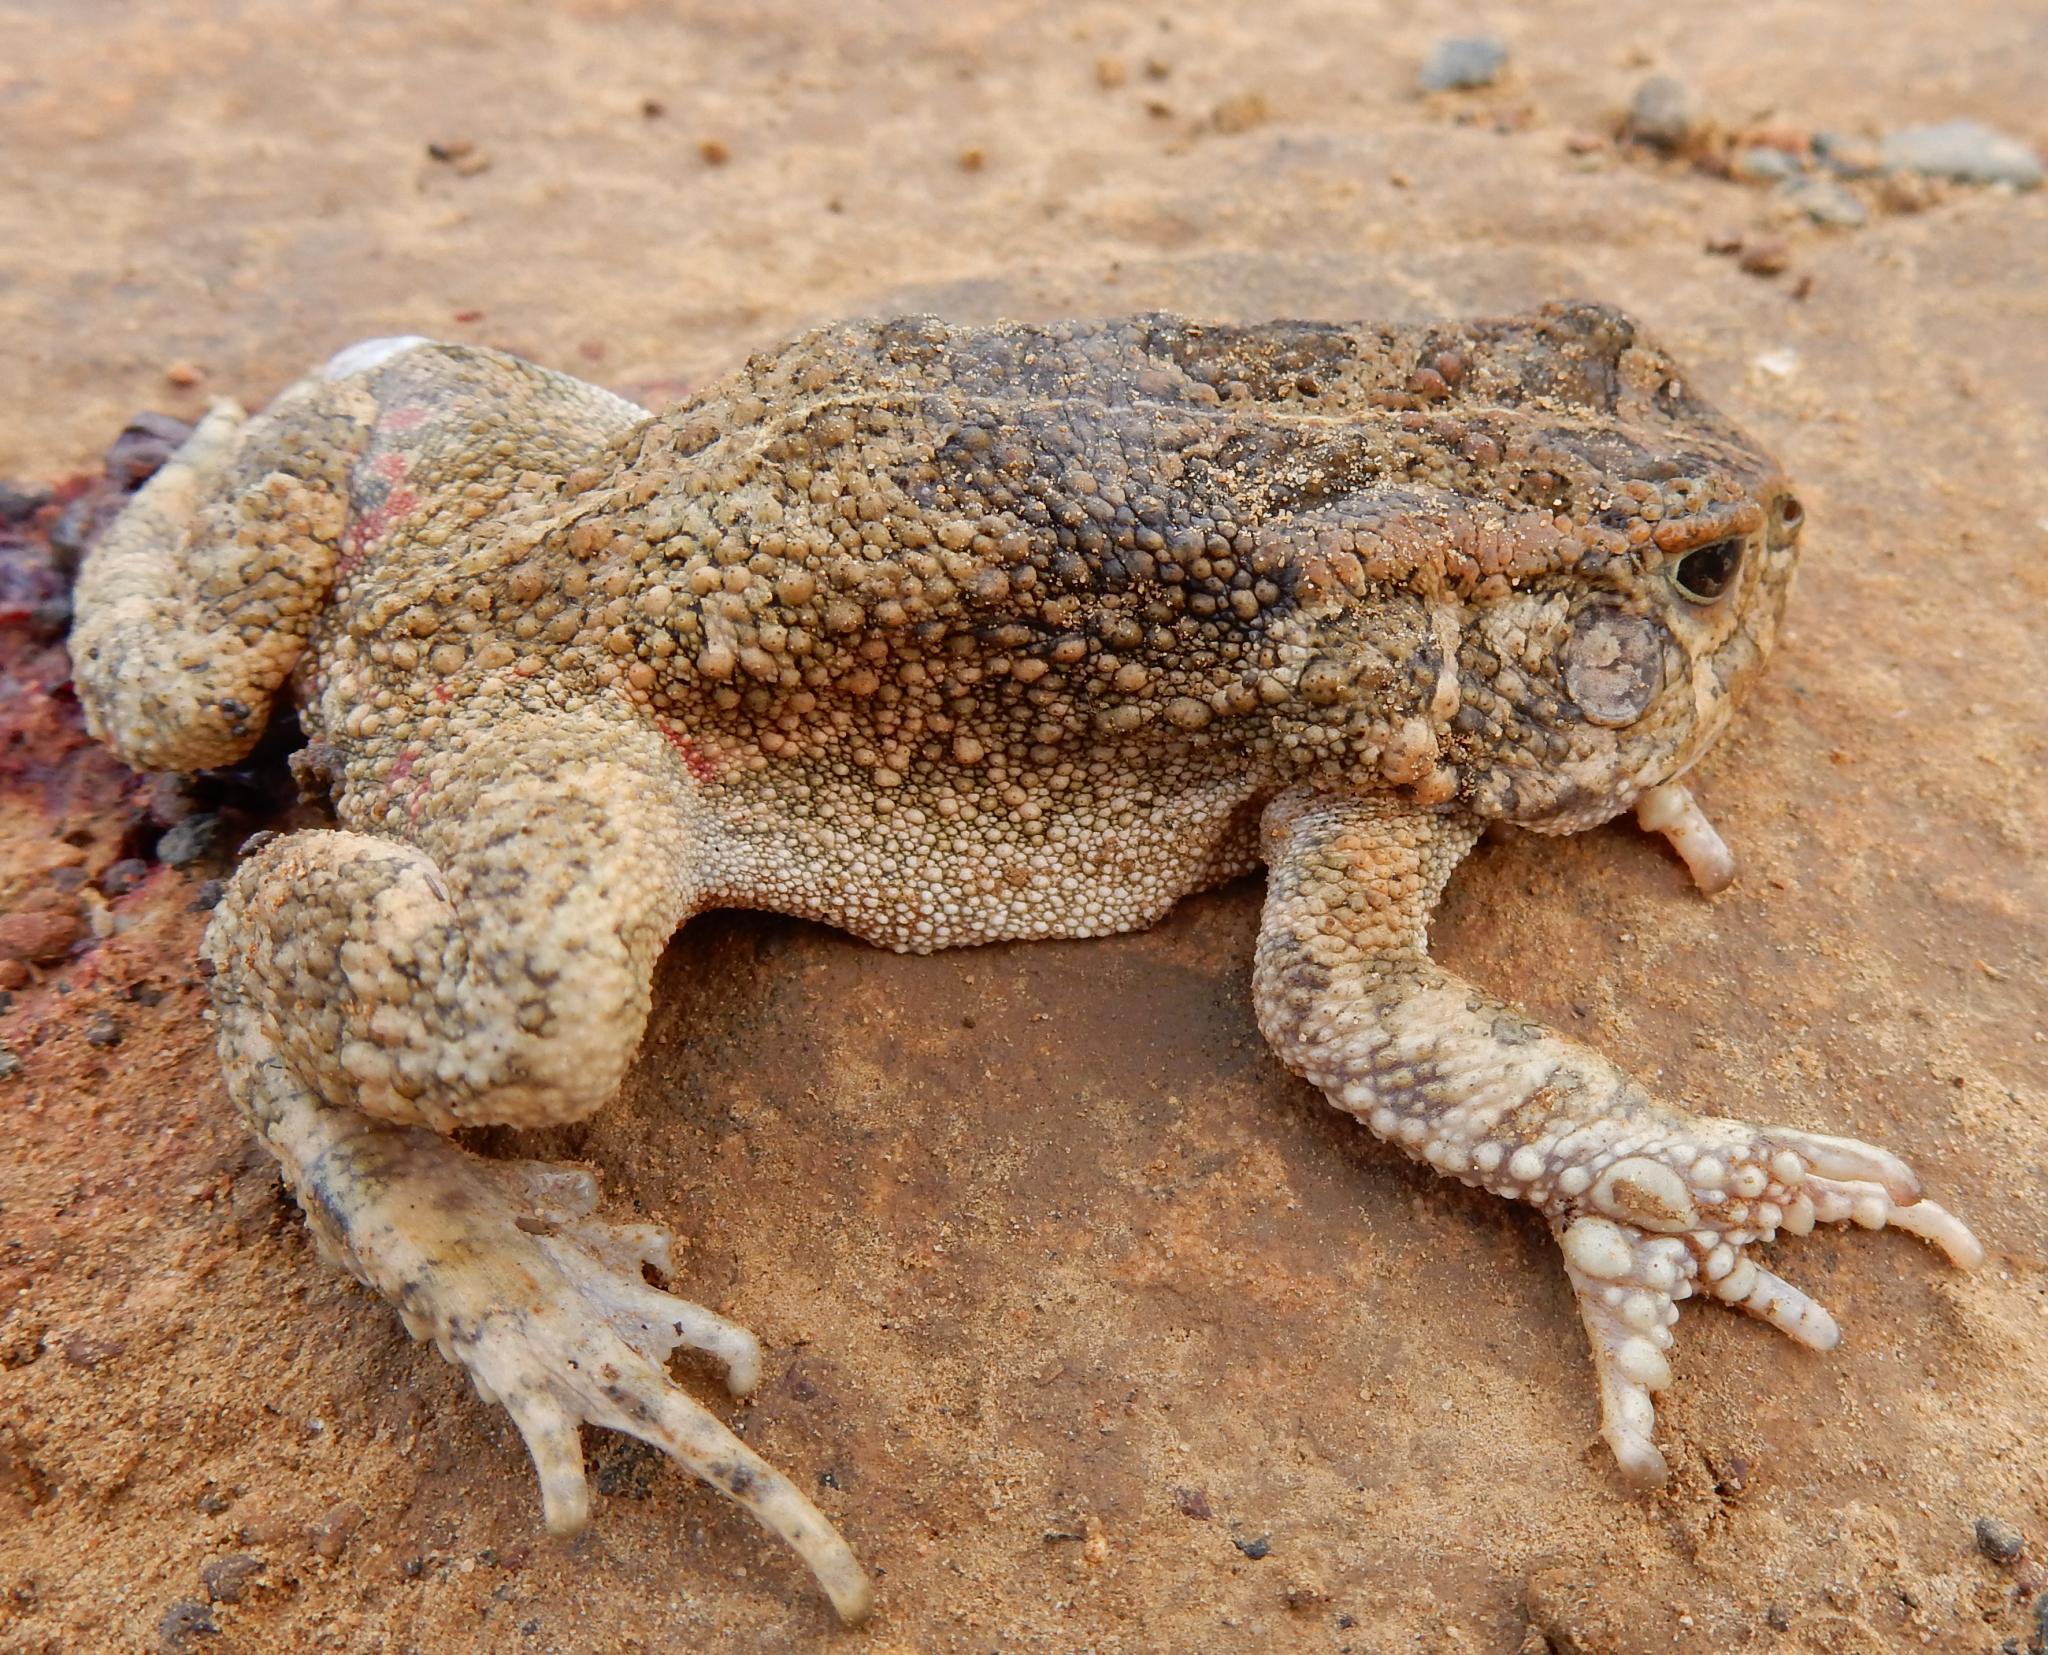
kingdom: Animalia
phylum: Chordata
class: Amphibia
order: Anura
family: Bufonidae
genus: Sclerophrys
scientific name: Sclerophrys gutturalis
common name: African common toad
